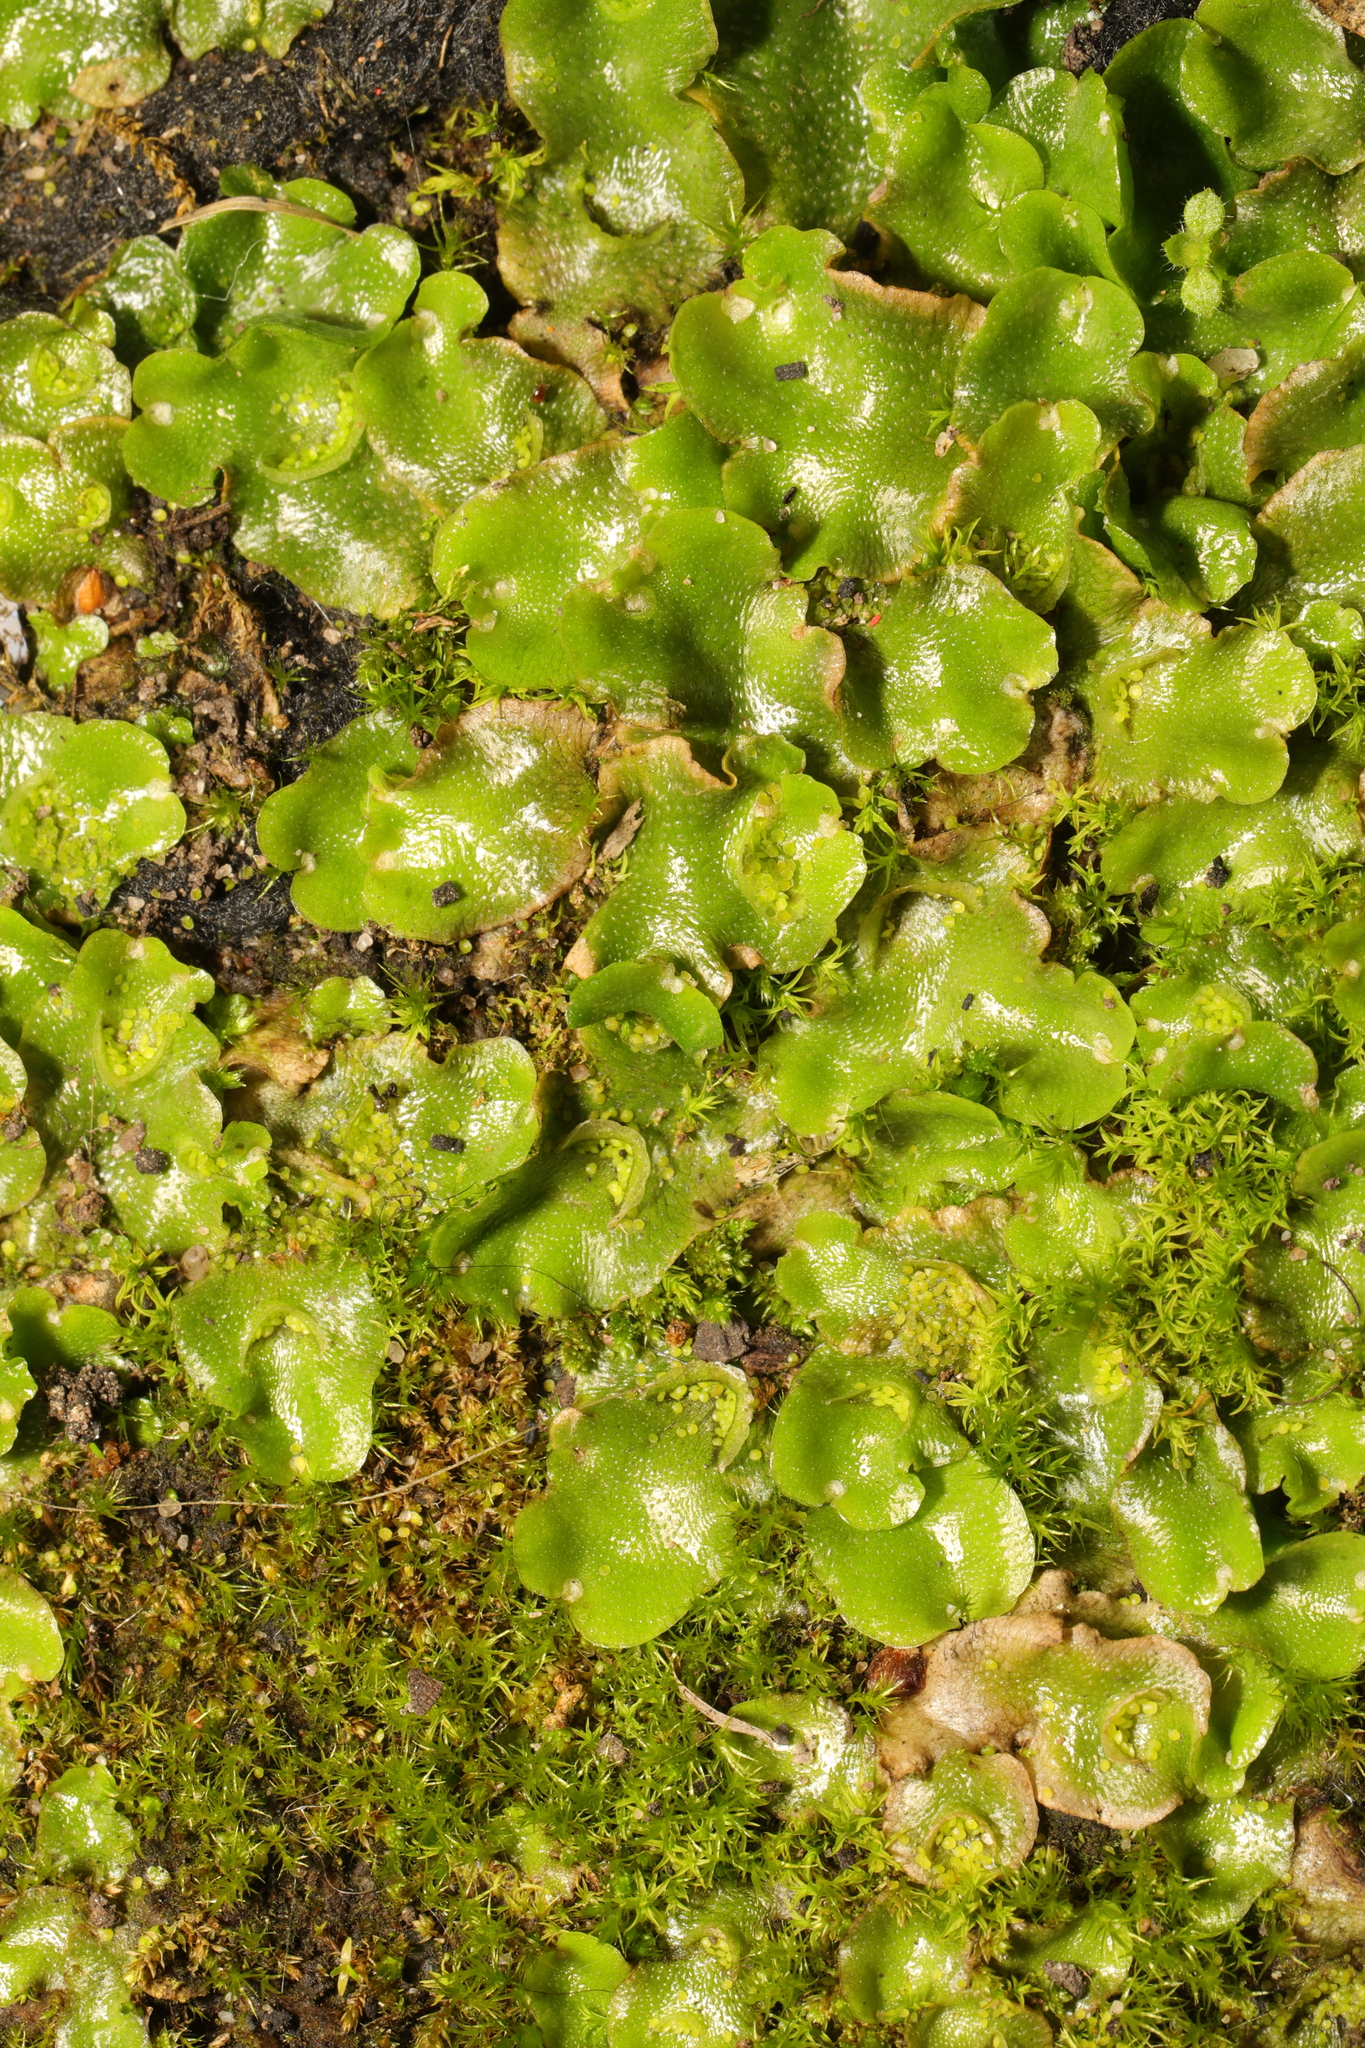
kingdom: Plantae
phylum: Marchantiophyta
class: Marchantiopsida
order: Lunulariales
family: Lunulariaceae
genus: Lunularia
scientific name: Lunularia cruciata
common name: Crescent-cup liverwort
